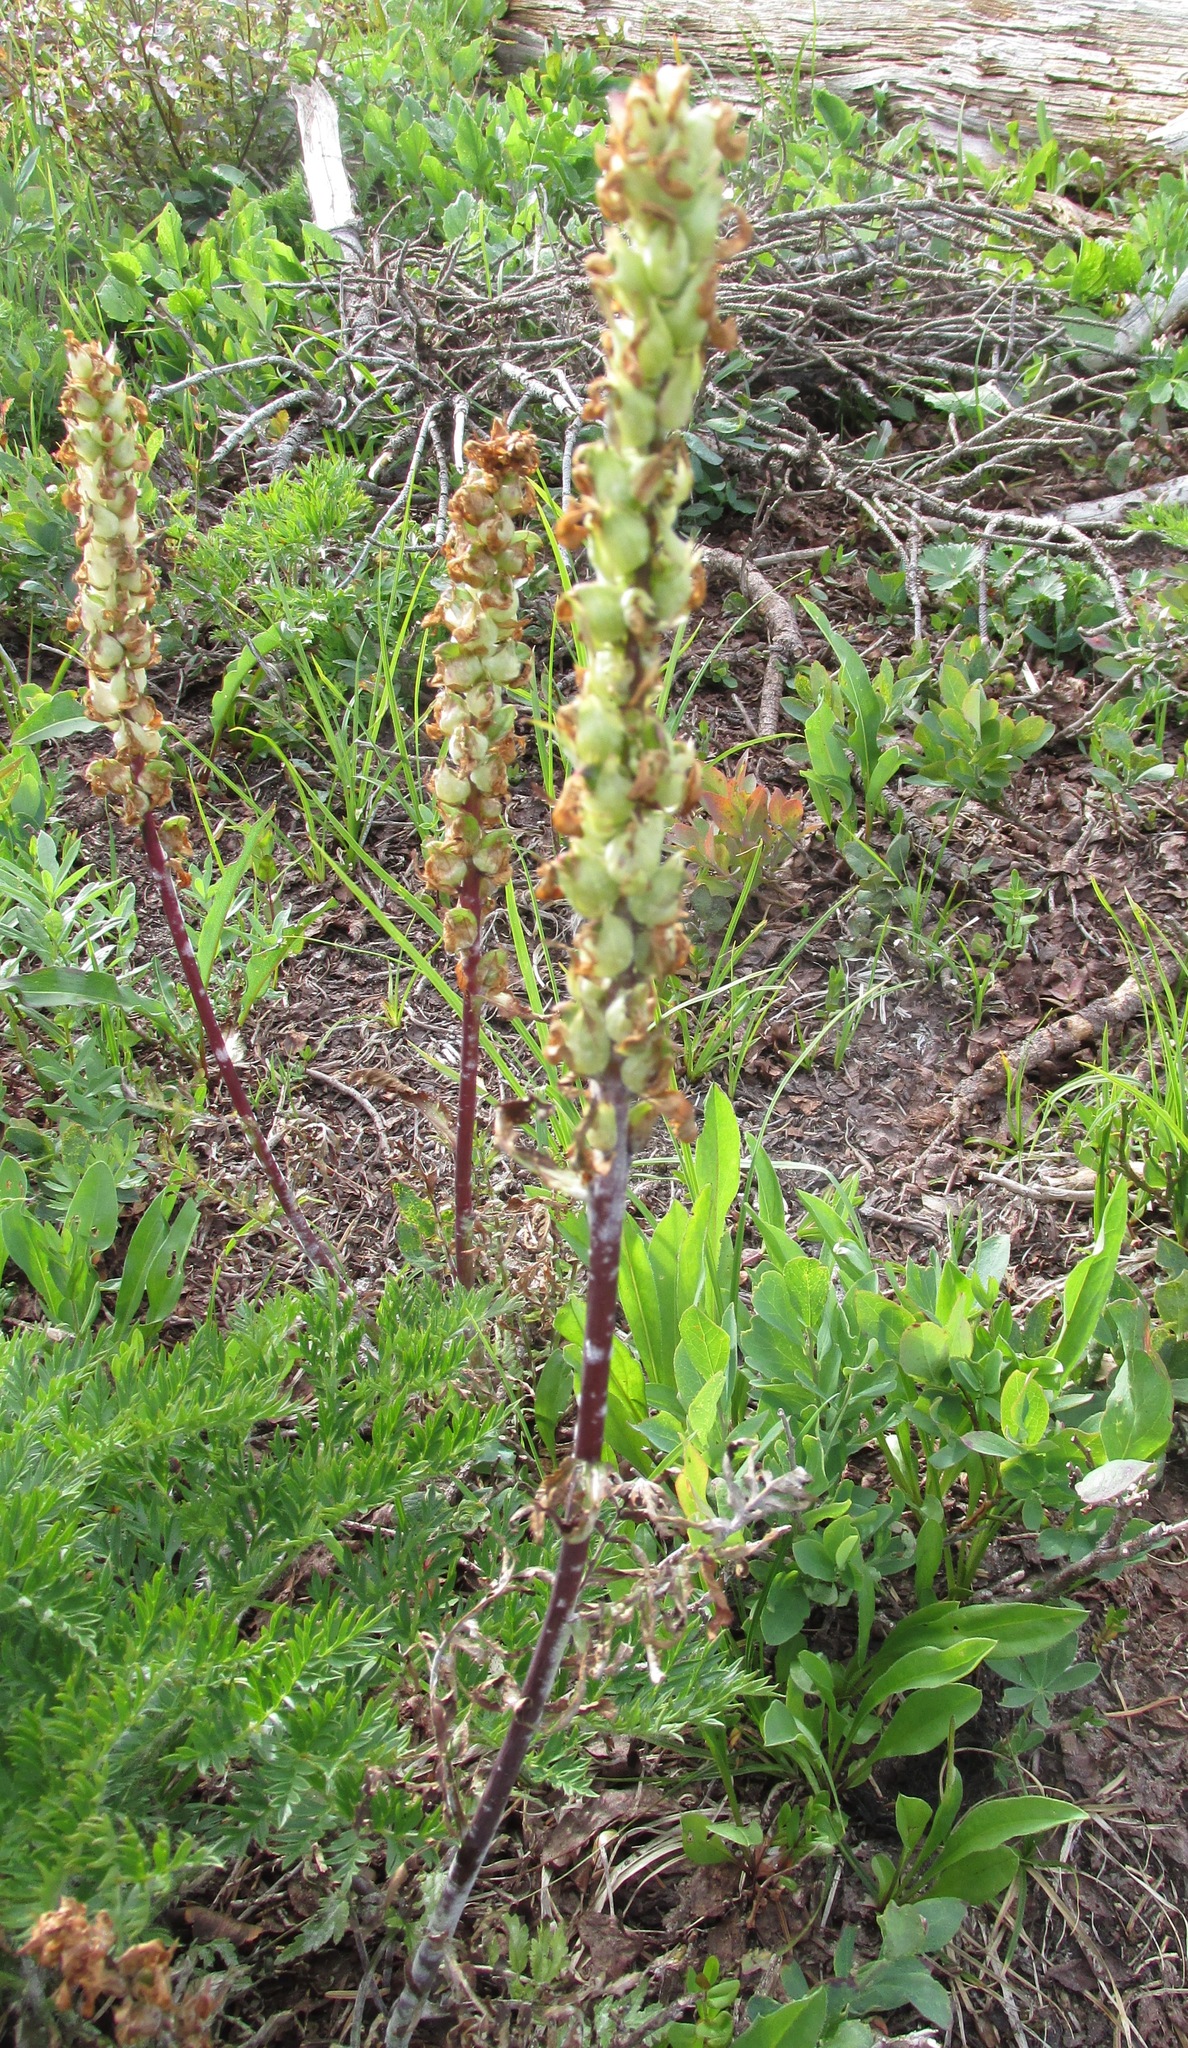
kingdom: Plantae
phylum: Tracheophyta
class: Magnoliopsida
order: Lamiales
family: Orobanchaceae
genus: Pedicularis
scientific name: Pedicularis bracteosa
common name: Bracted lousewort
